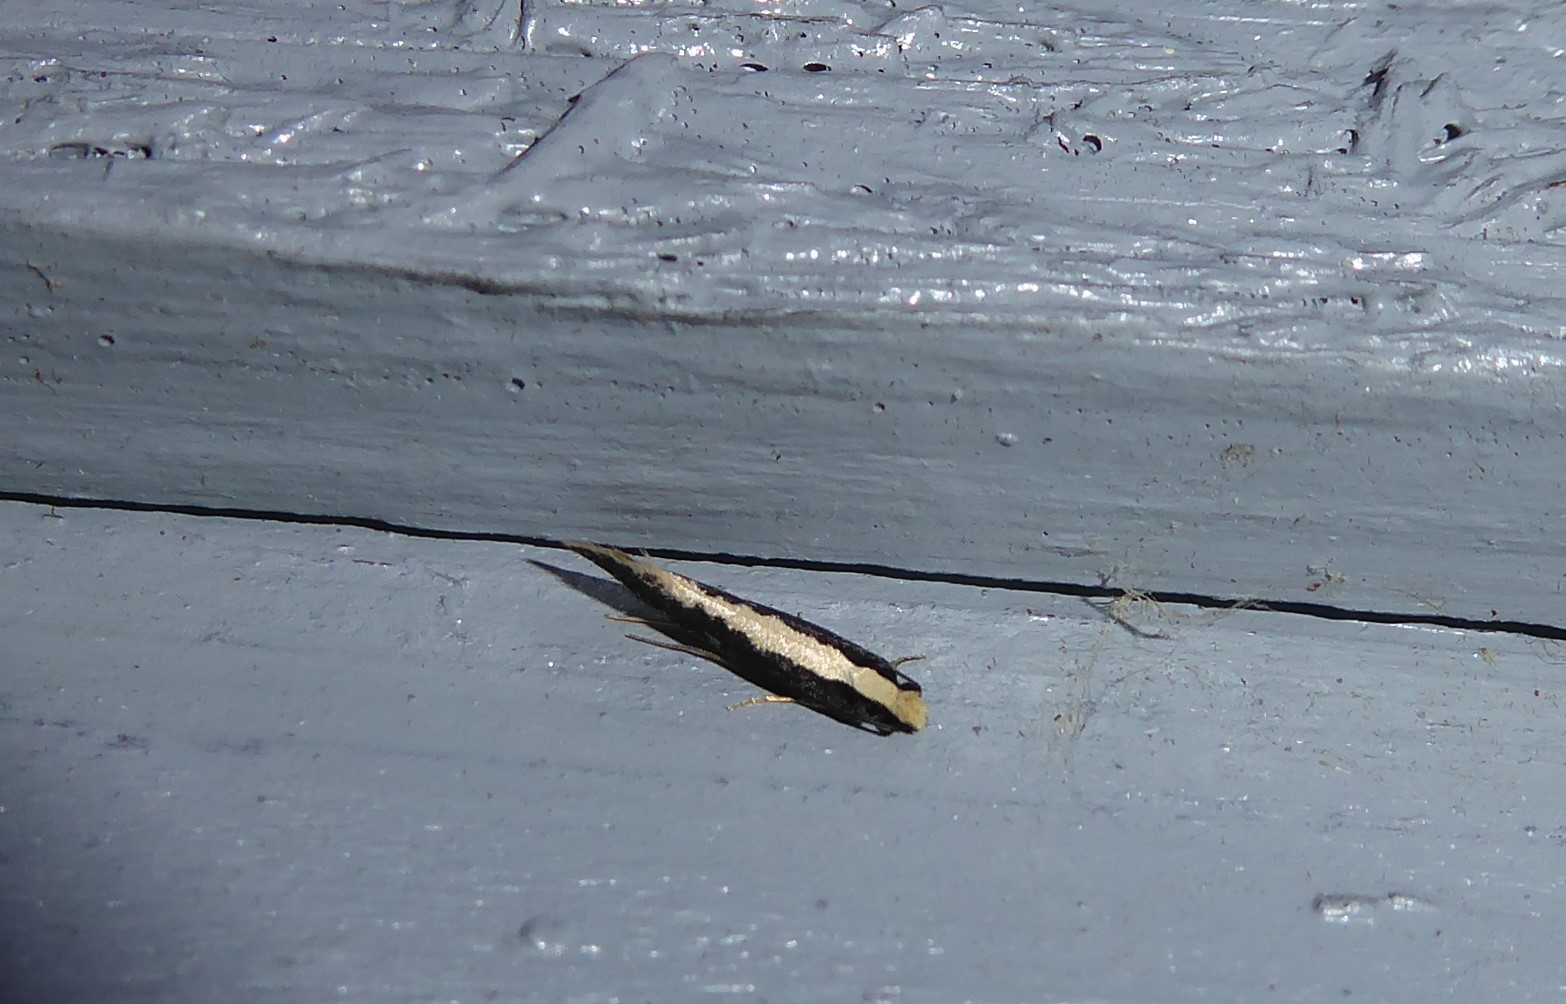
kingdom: Animalia
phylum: Arthropoda
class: Insecta
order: Lepidoptera
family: Tineidae
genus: Monopis
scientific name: Monopis ethelella
